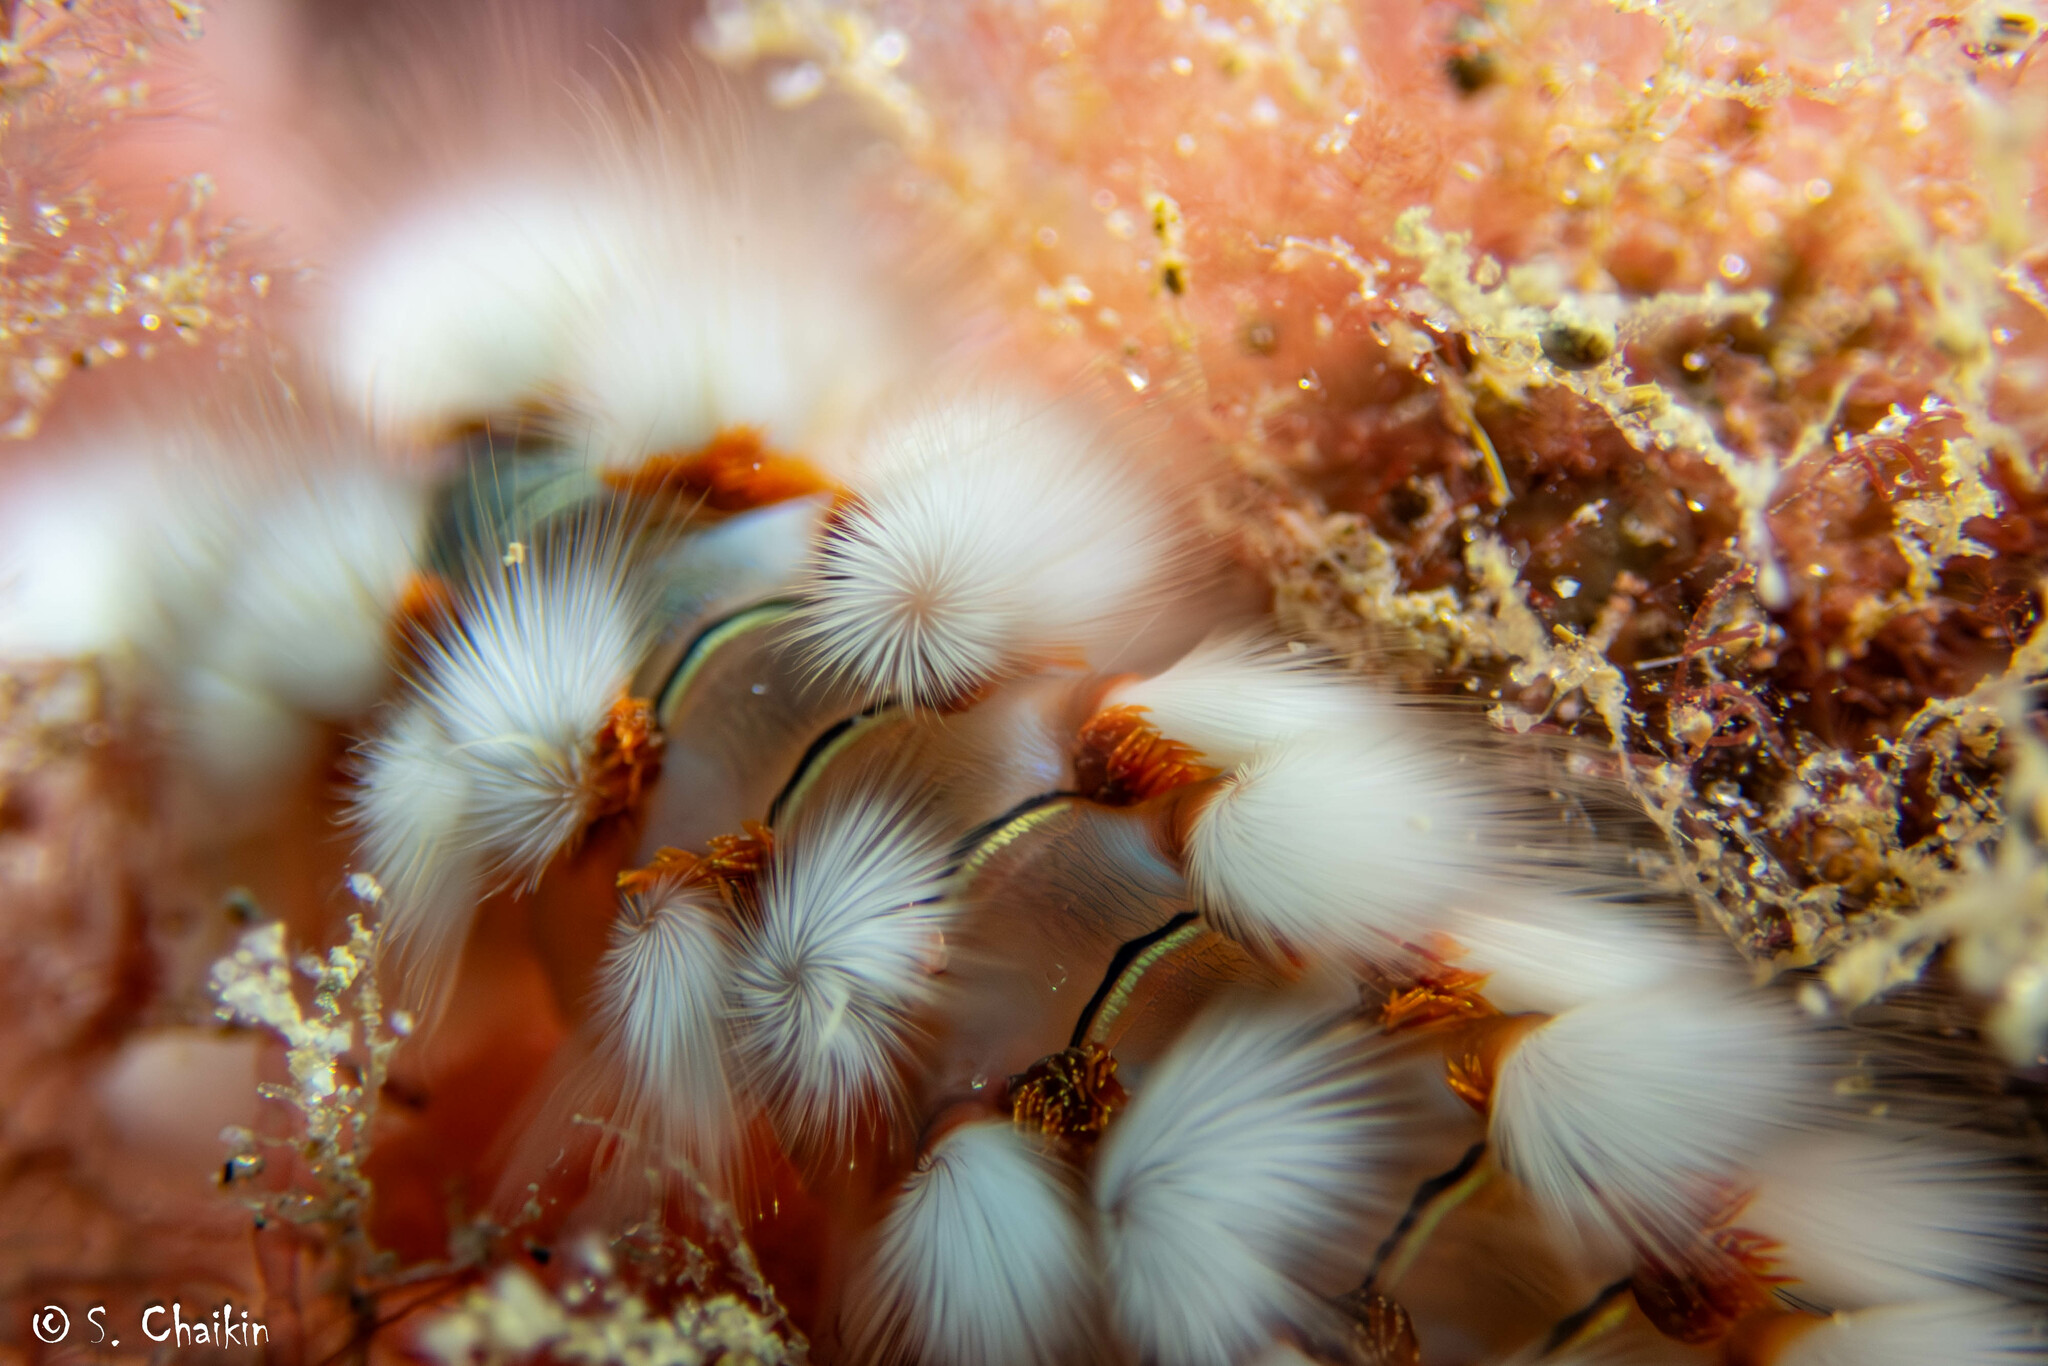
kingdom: Animalia
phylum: Annelida
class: Polychaeta
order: Amphinomida
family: Amphinomidae
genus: Hermodice
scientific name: Hermodice carunculata
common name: Bearded fireworm
